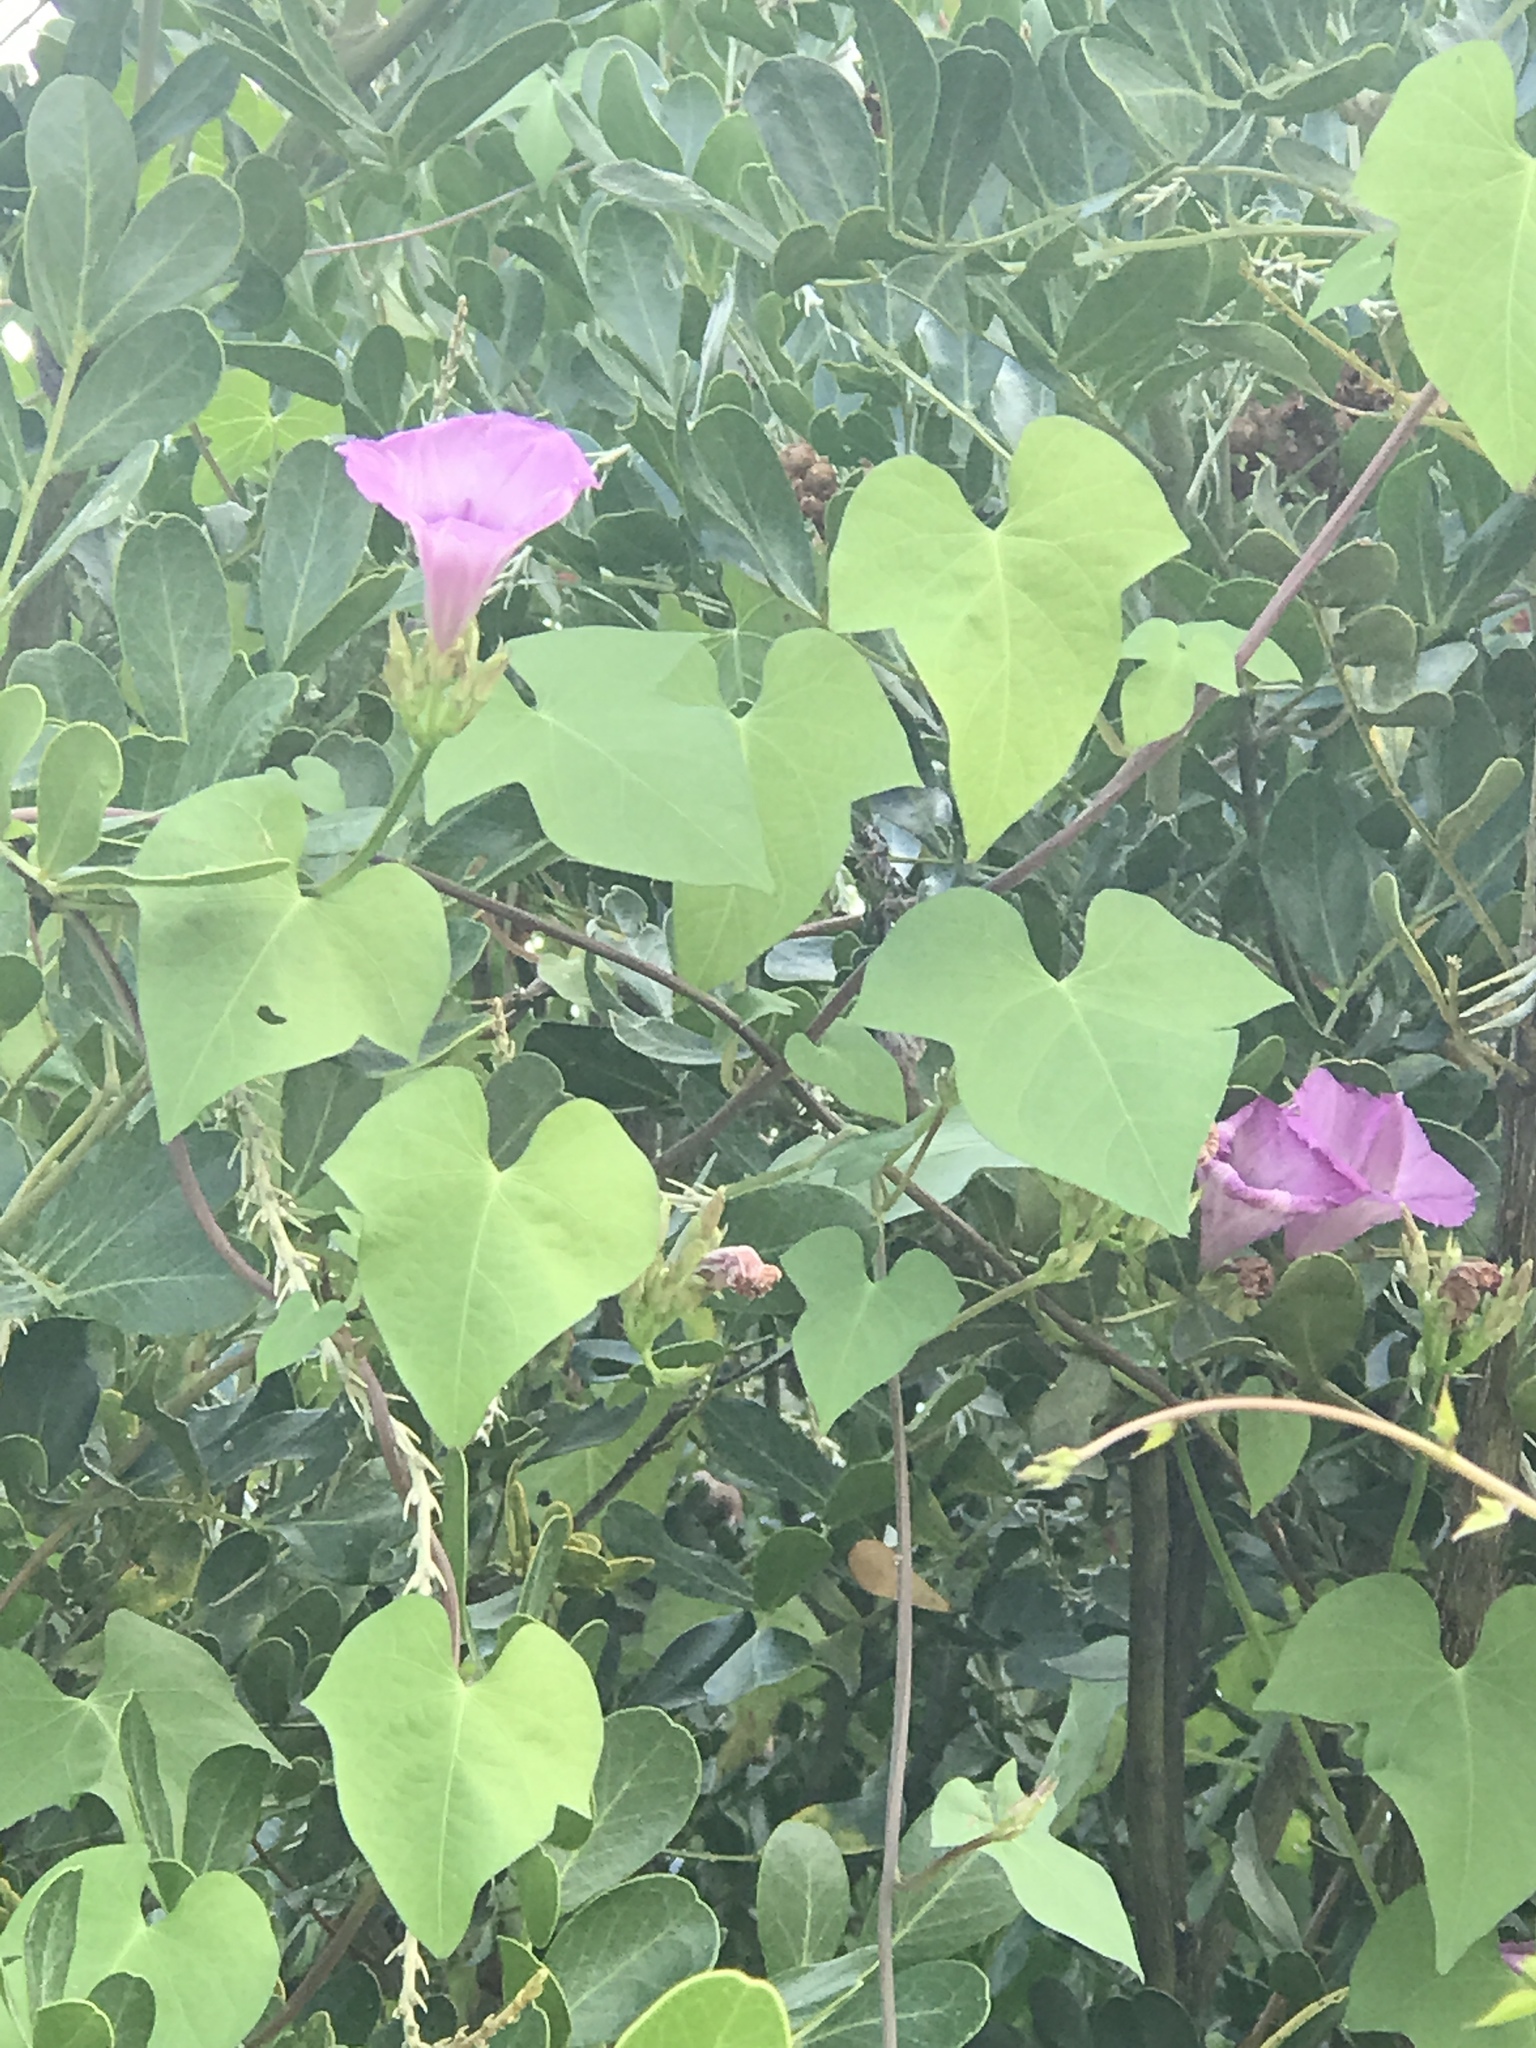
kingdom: Plantae
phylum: Tracheophyta
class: Magnoliopsida
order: Solanales
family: Convolvulaceae
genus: Ipomoea
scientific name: Ipomoea cordatotriloba
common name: Cotton morning glory
